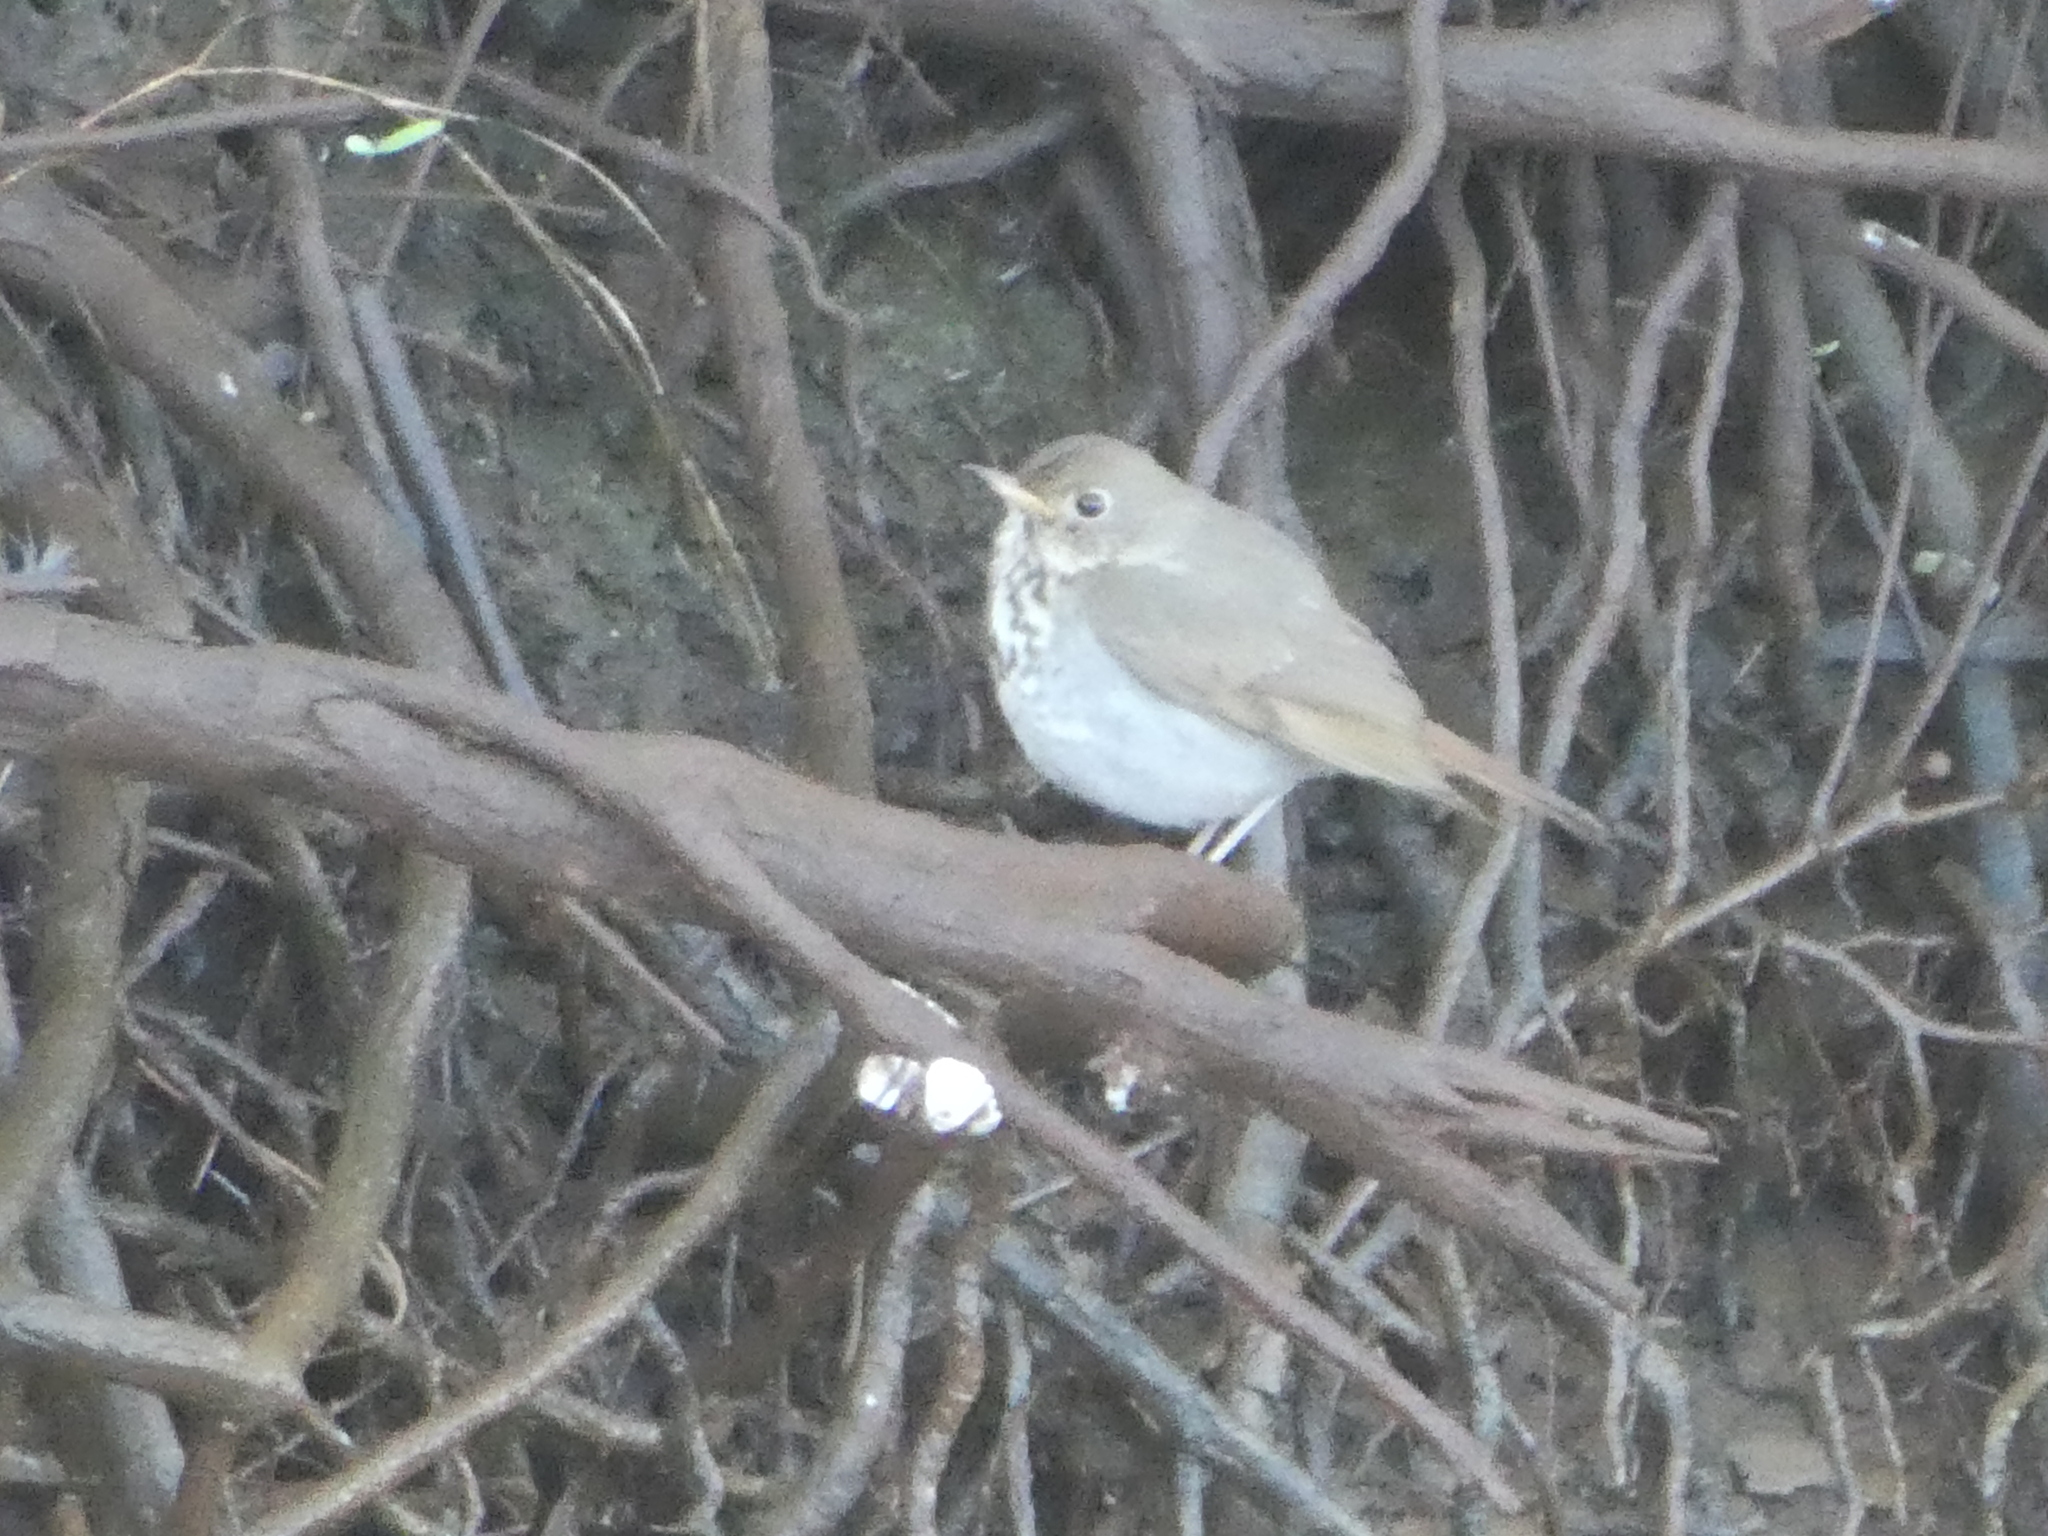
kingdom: Animalia
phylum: Chordata
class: Aves
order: Passeriformes
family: Turdidae
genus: Catharus
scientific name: Catharus guttatus
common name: Hermit thrush
